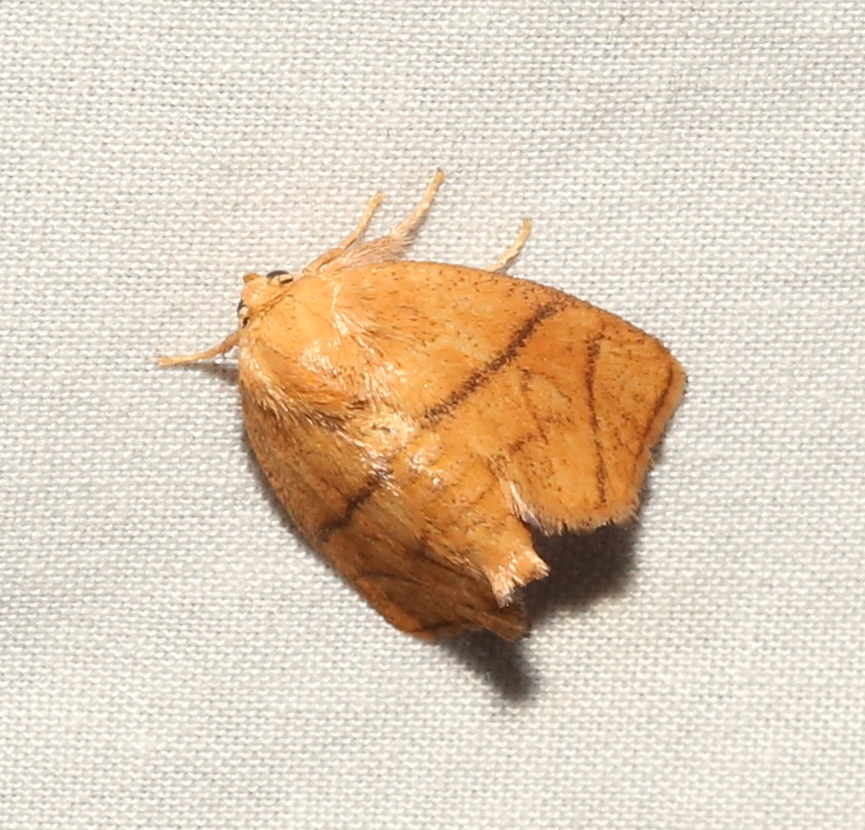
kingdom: Animalia
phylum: Arthropoda
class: Insecta
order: Lepidoptera
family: Limacodidae
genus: Apoda
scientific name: Apoda y-inversa
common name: Yellow-collared slug moth
